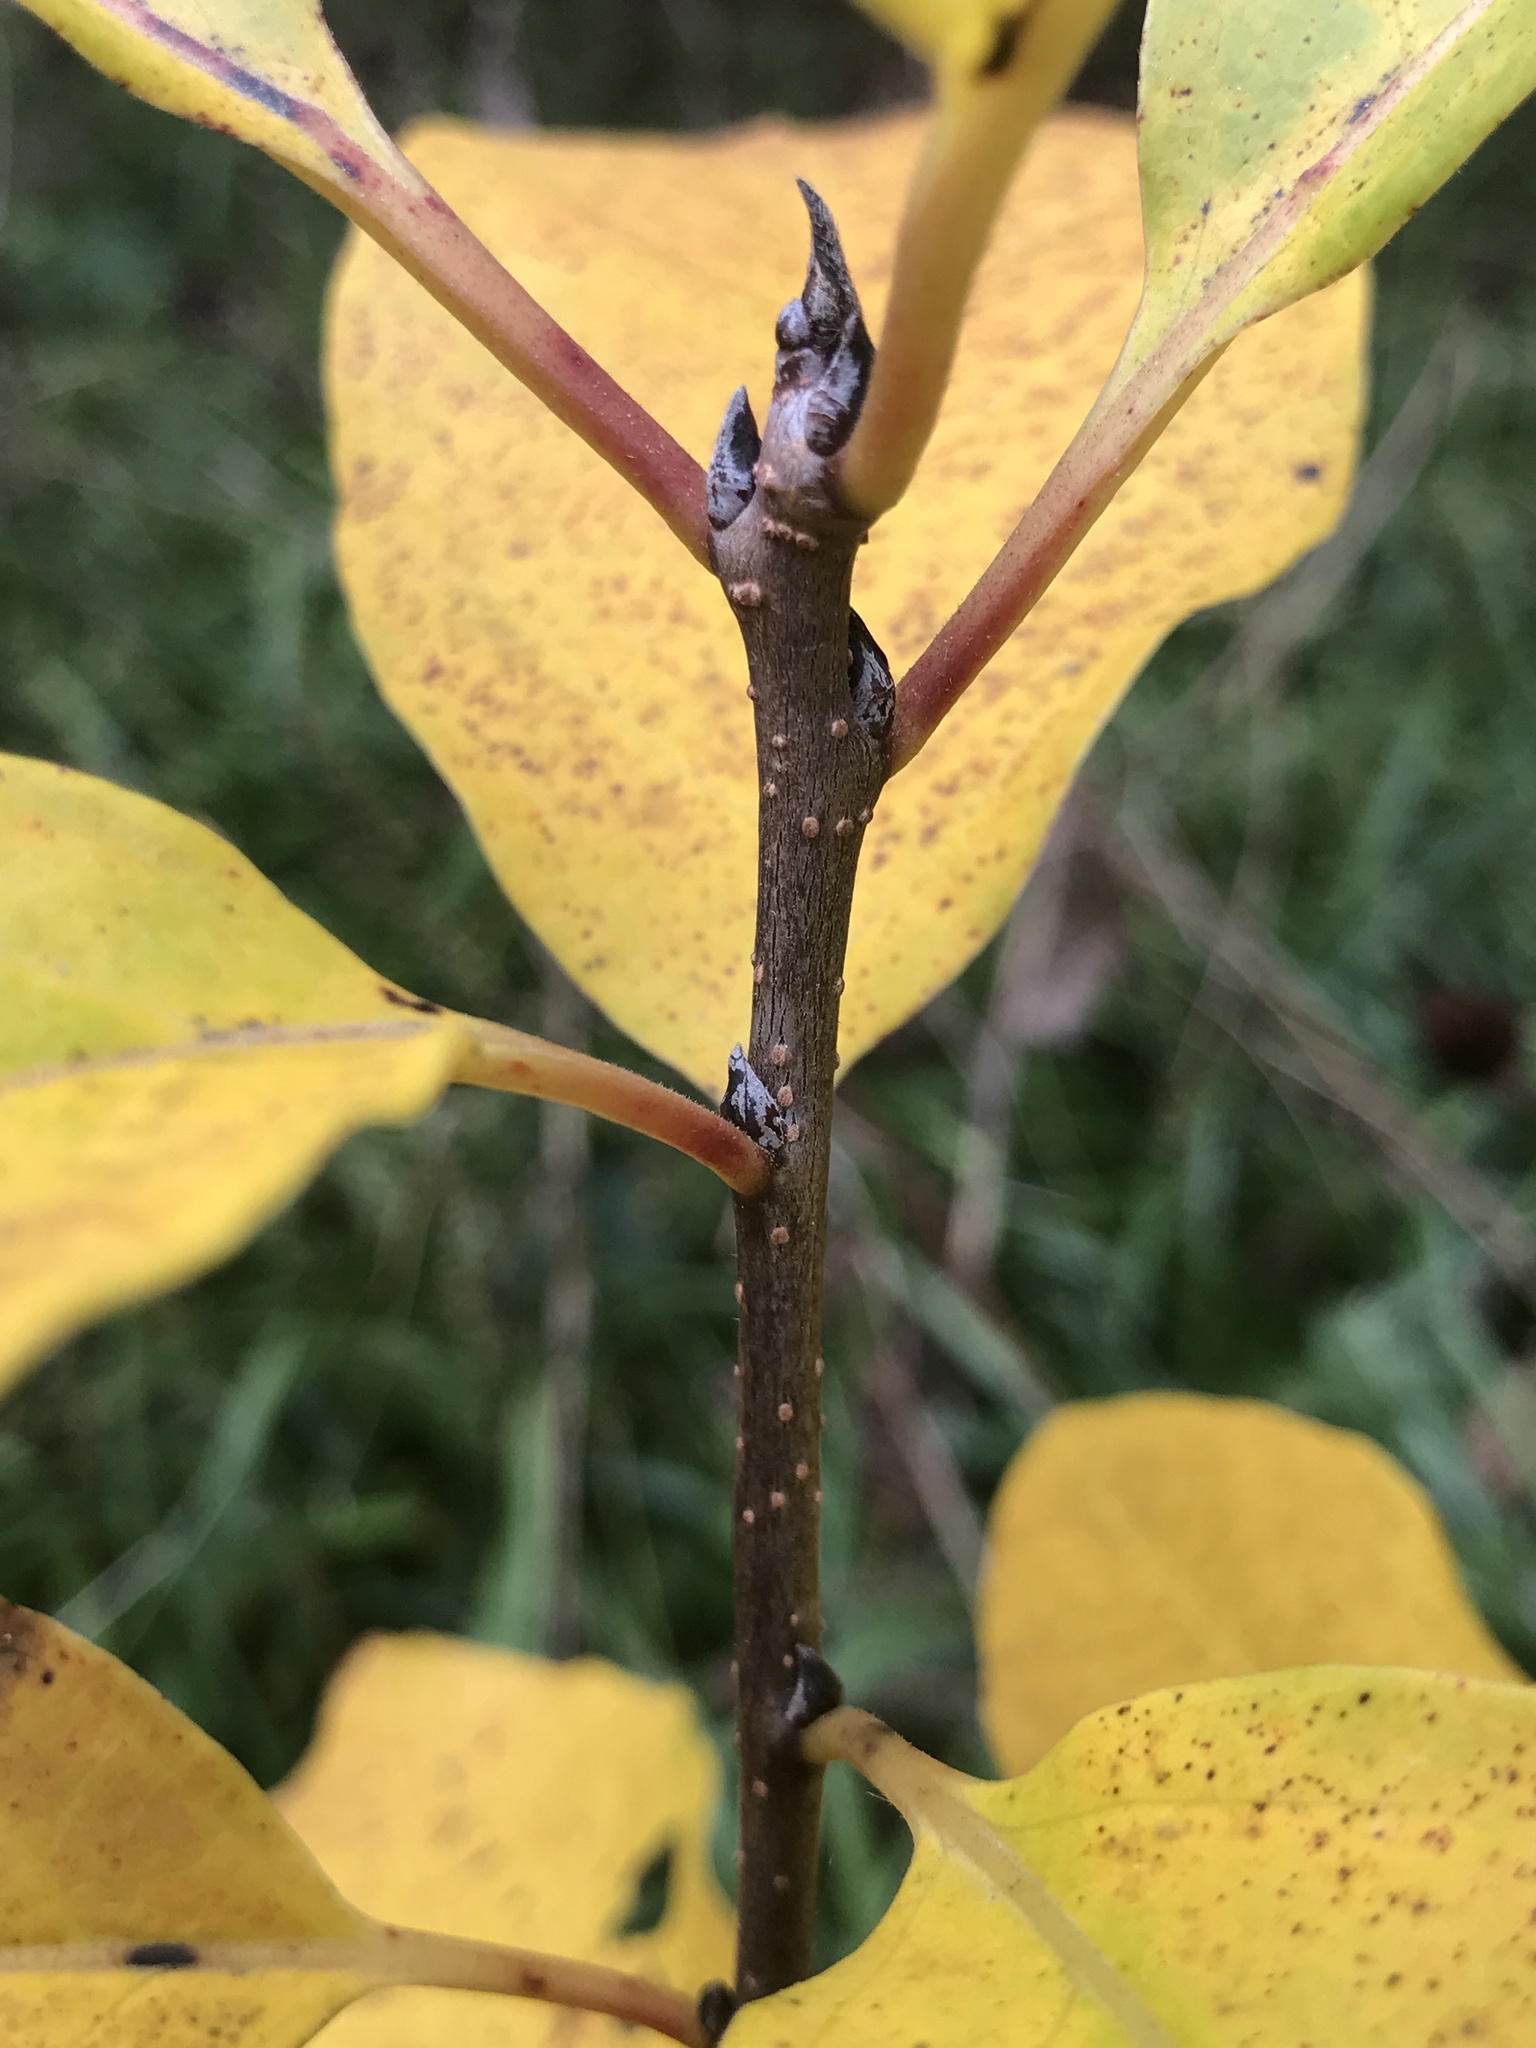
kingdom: Plantae
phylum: Tracheophyta
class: Magnoliopsida
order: Ericales
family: Ebenaceae
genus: Diospyros
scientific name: Diospyros virginiana
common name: Persimmon
